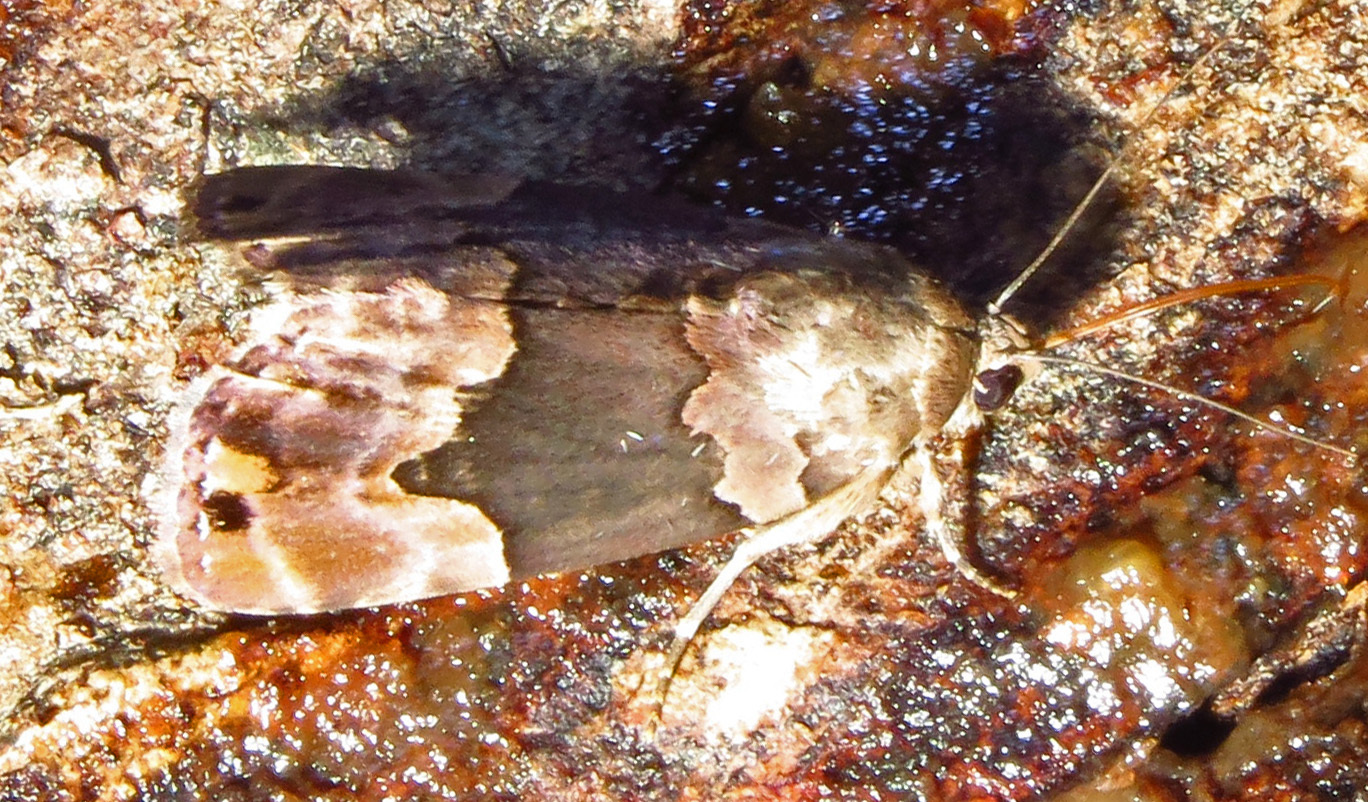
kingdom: Animalia
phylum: Arthropoda
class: Insecta
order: Lepidoptera
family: Erebidae
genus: Dinumma
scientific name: Dinumma deponens
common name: Purplish moth
